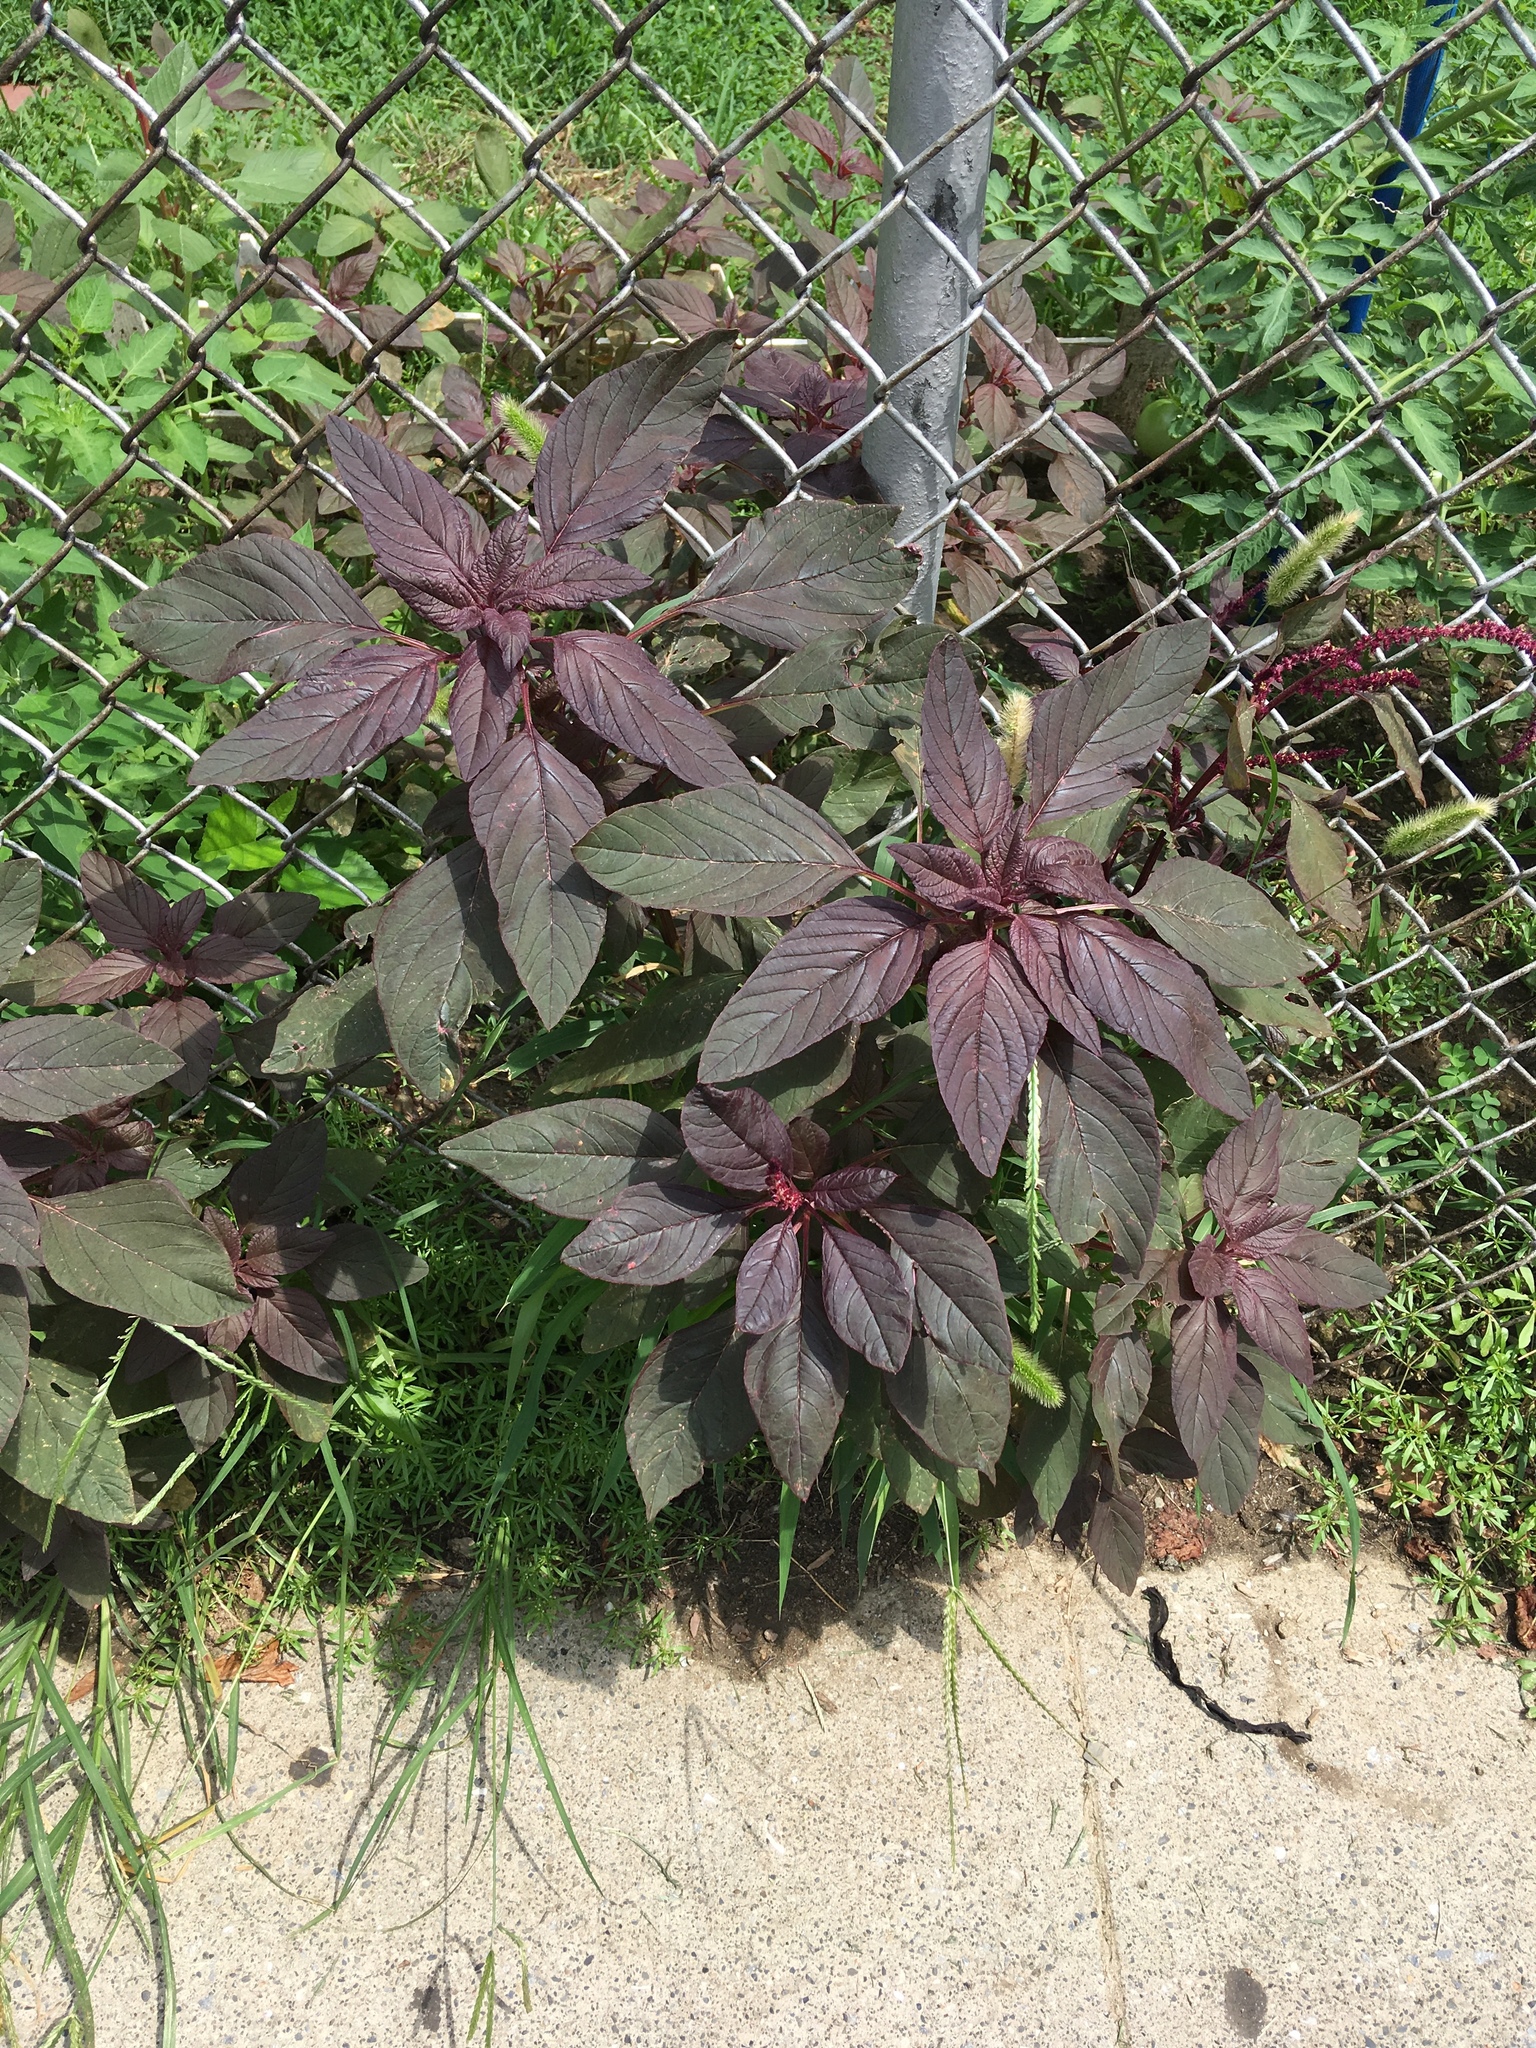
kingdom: Plantae
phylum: Tracheophyta
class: Magnoliopsida
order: Caryophyllales
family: Amaranthaceae
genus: Amaranthus
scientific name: Amaranthus cruentus
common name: Purple amaranth
